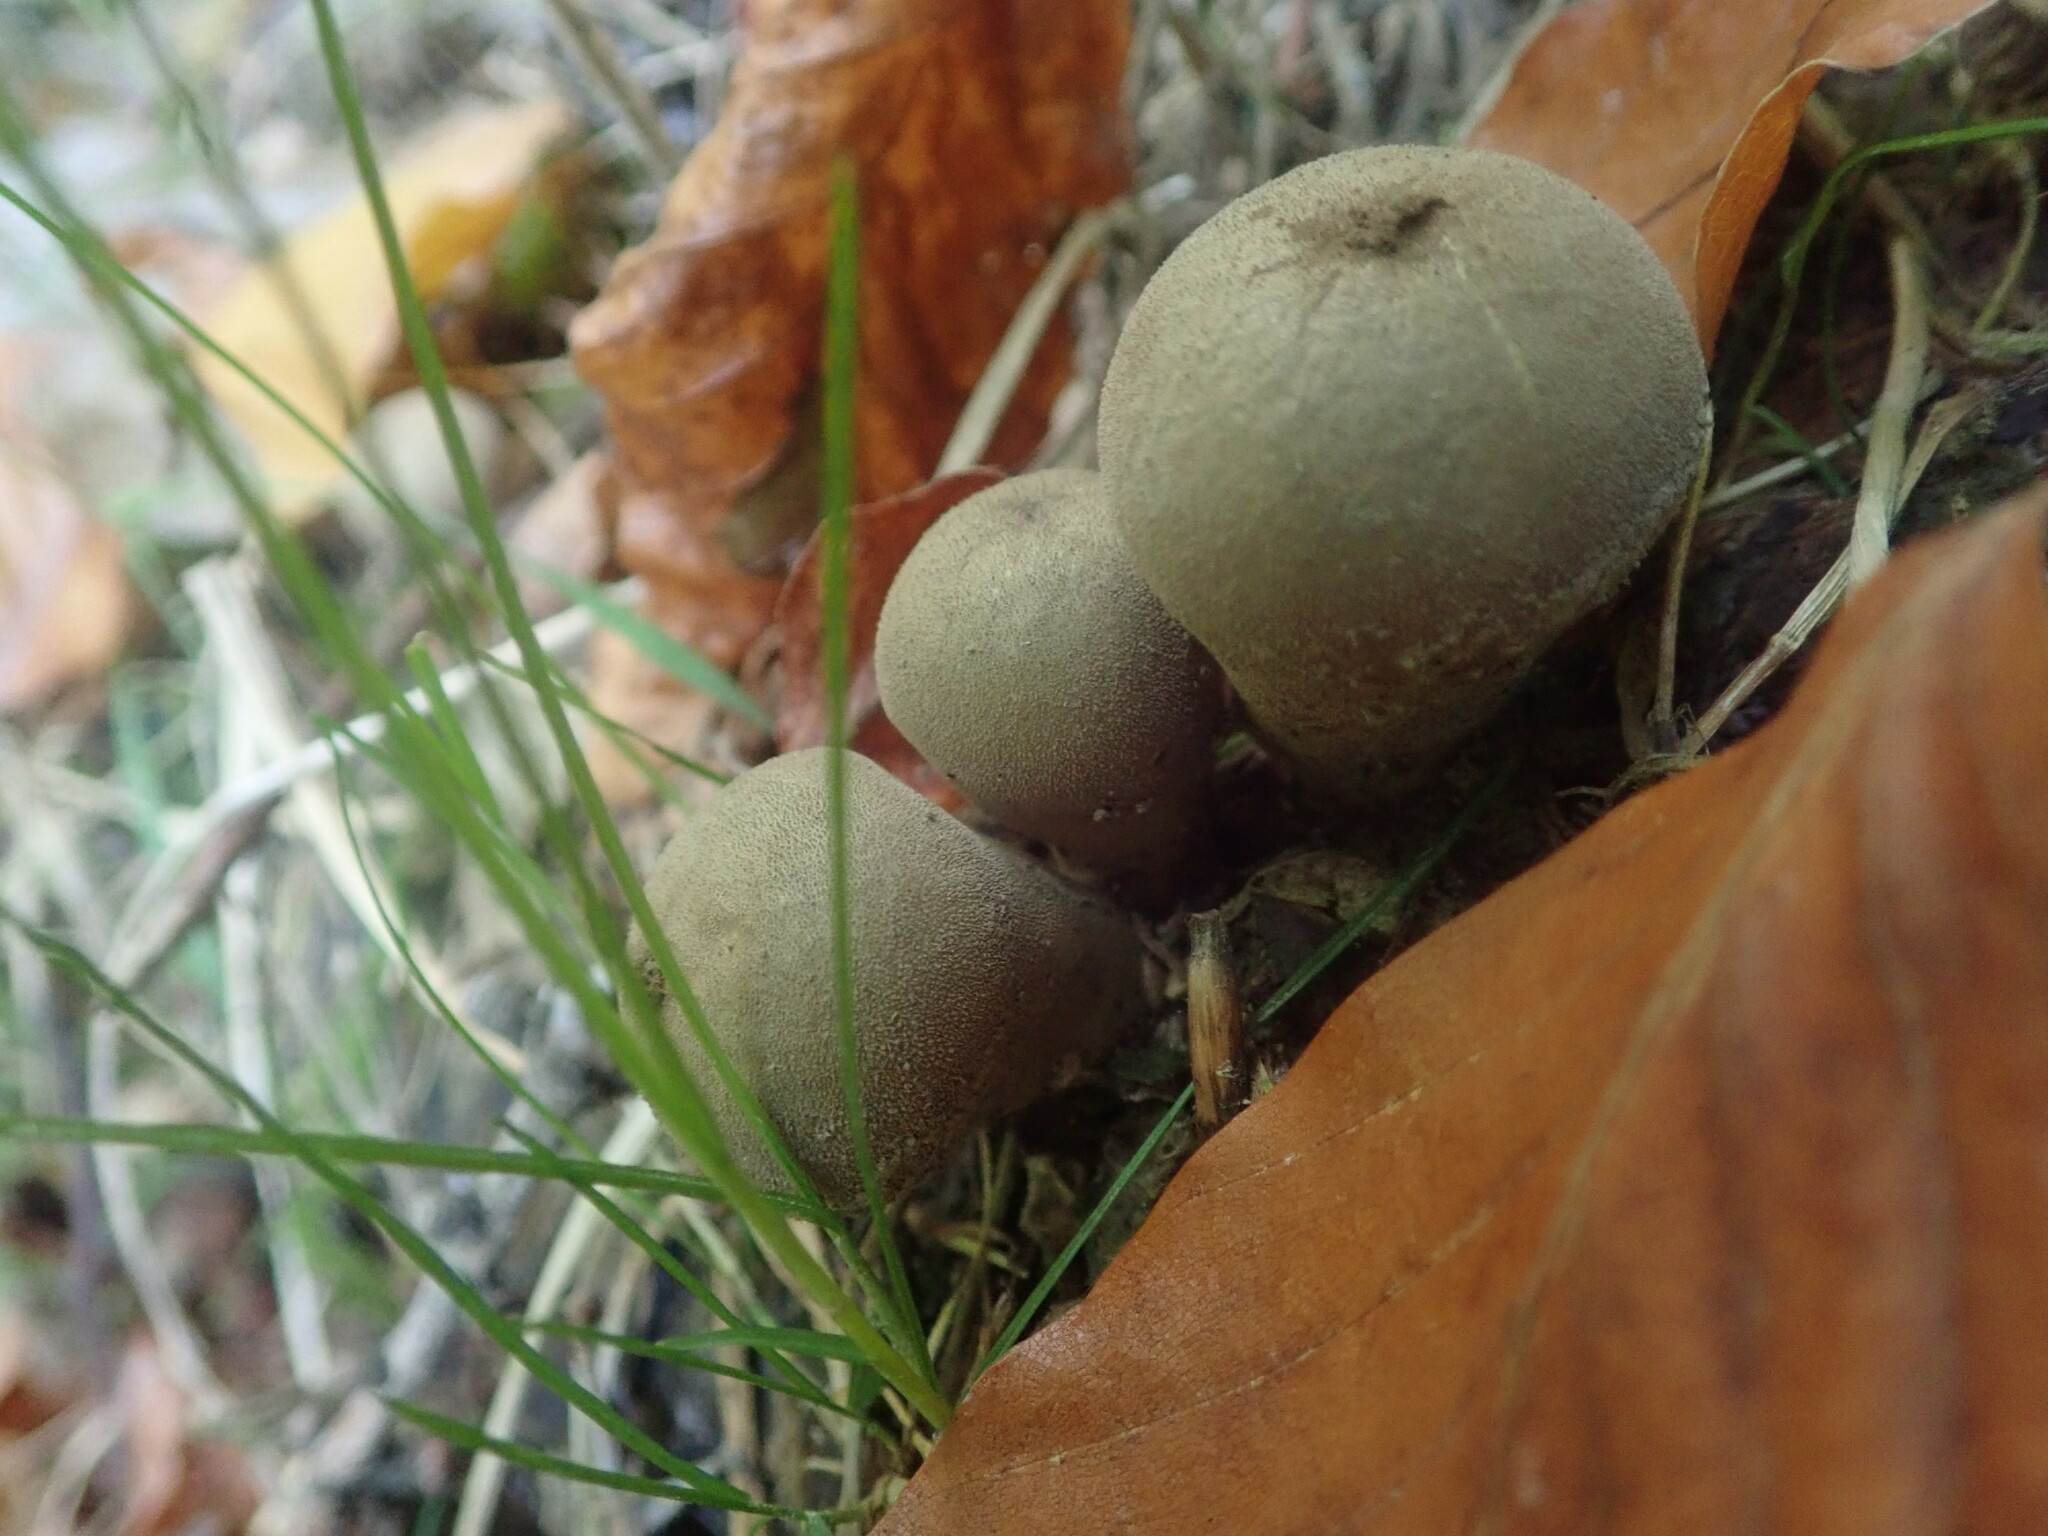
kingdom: Fungi
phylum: Basidiomycota
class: Agaricomycetes
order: Agaricales
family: Lycoperdaceae
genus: Apioperdon
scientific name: Apioperdon pyriforme
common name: Pear-shaped puffball
